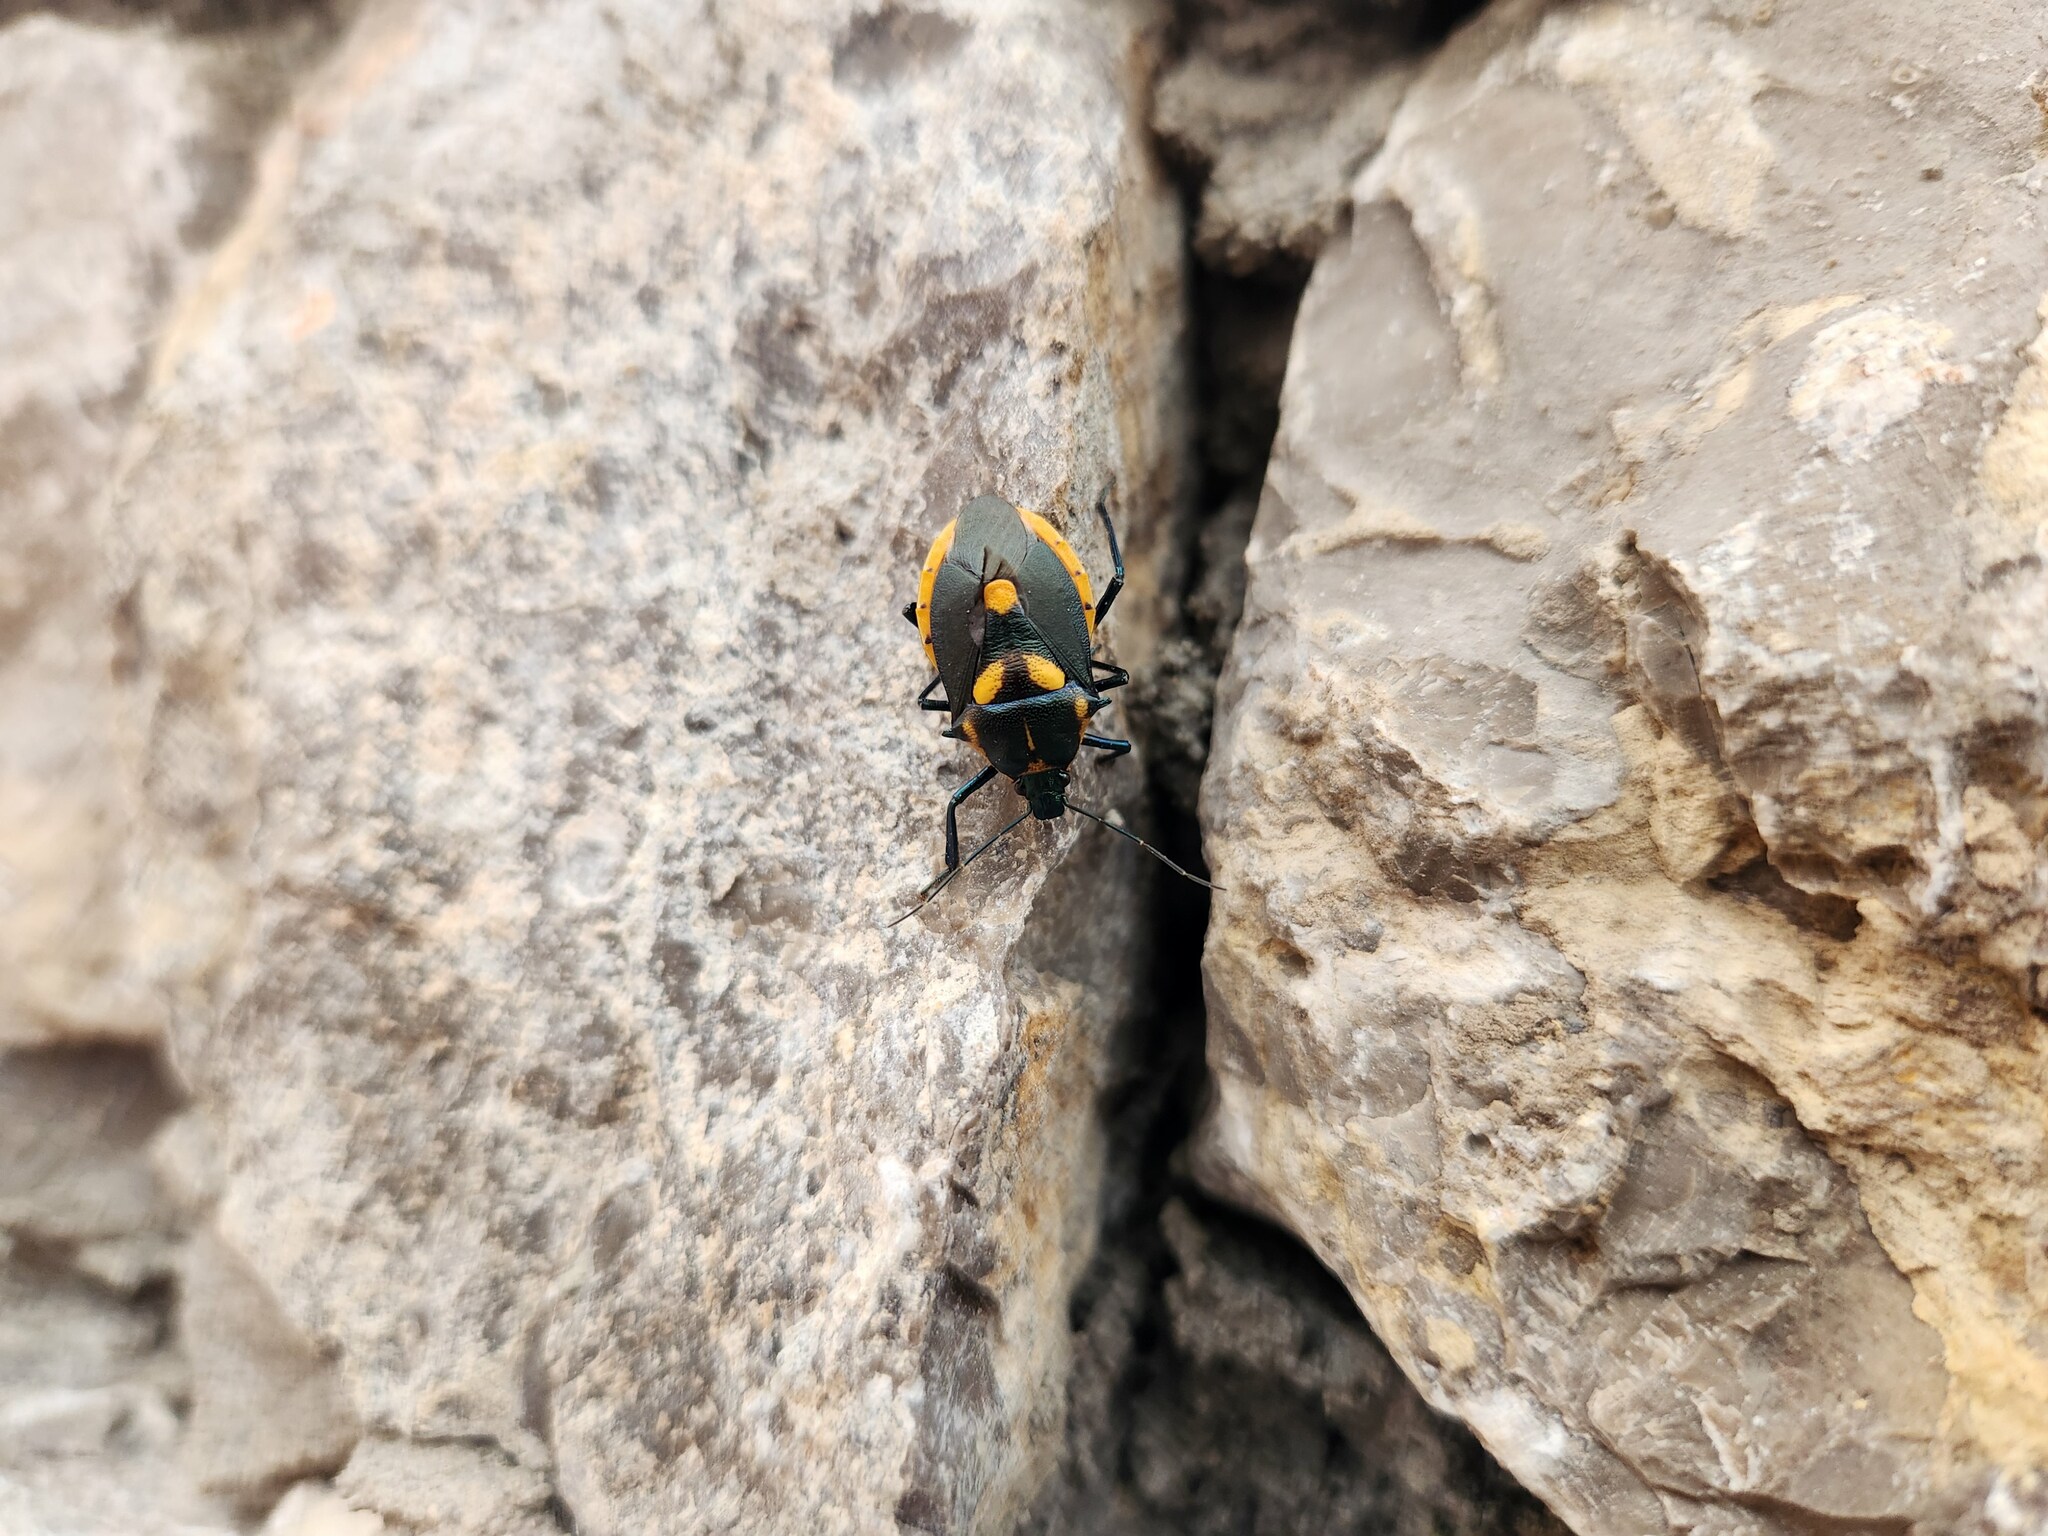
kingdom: Animalia
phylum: Arthropoda
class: Insecta
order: Hemiptera
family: Pentatomidae
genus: Euthyrhynchus
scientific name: Euthyrhynchus floridanus
